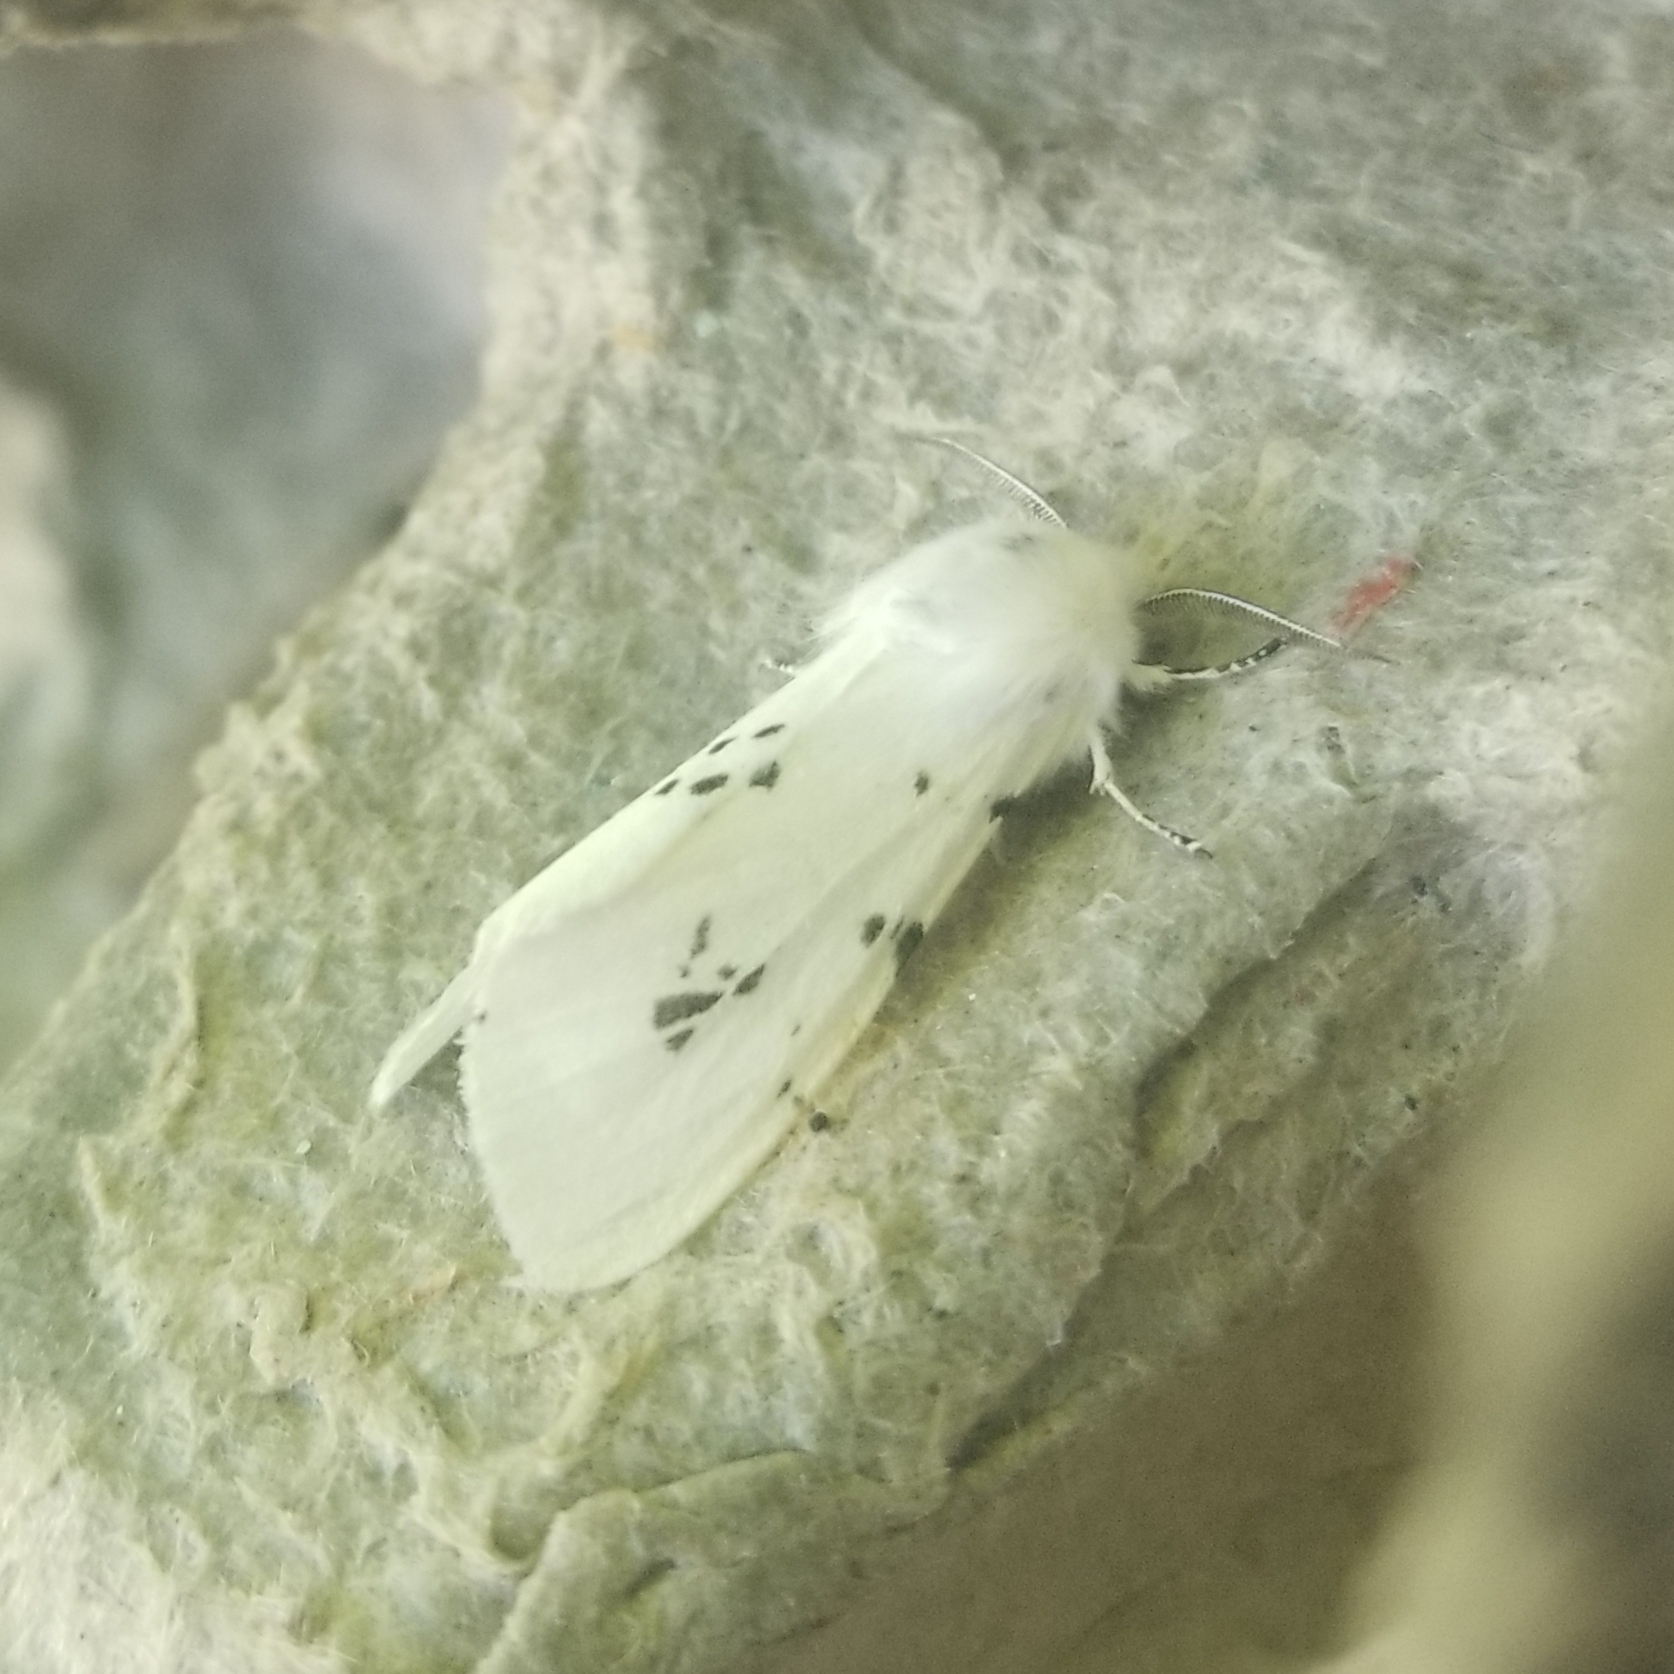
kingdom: Animalia
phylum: Arthropoda
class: Insecta
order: Lepidoptera
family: Erebidae
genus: Hyphantria
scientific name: Hyphantria cunea
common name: American white moth
